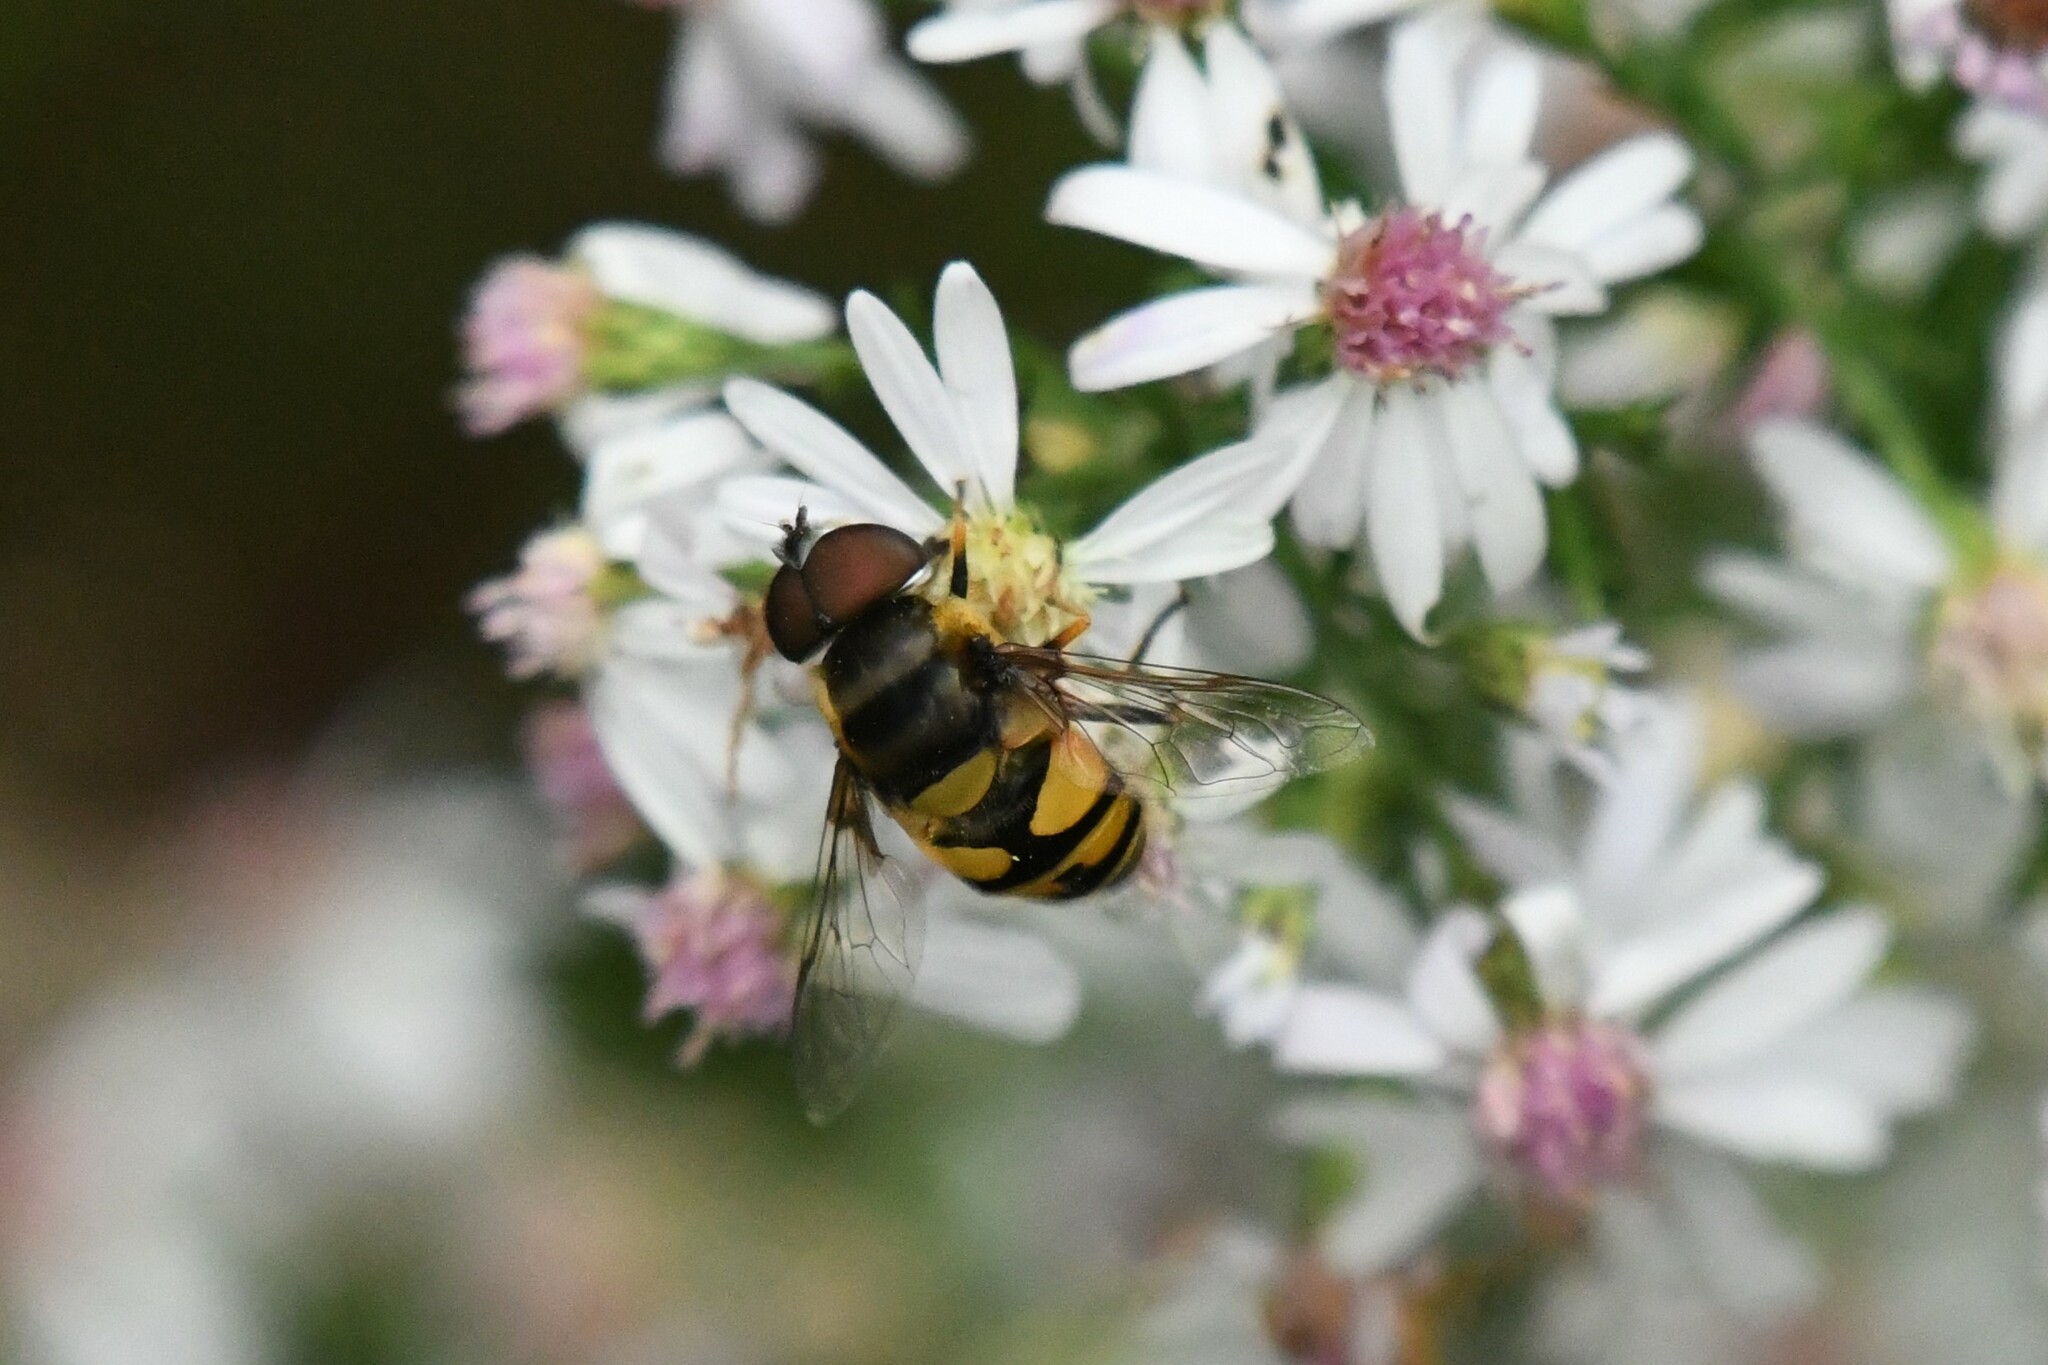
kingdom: Animalia
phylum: Arthropoda
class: Insecta
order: Diptera
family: Syrphidae
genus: Eristalis
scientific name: Eristalis transversa
